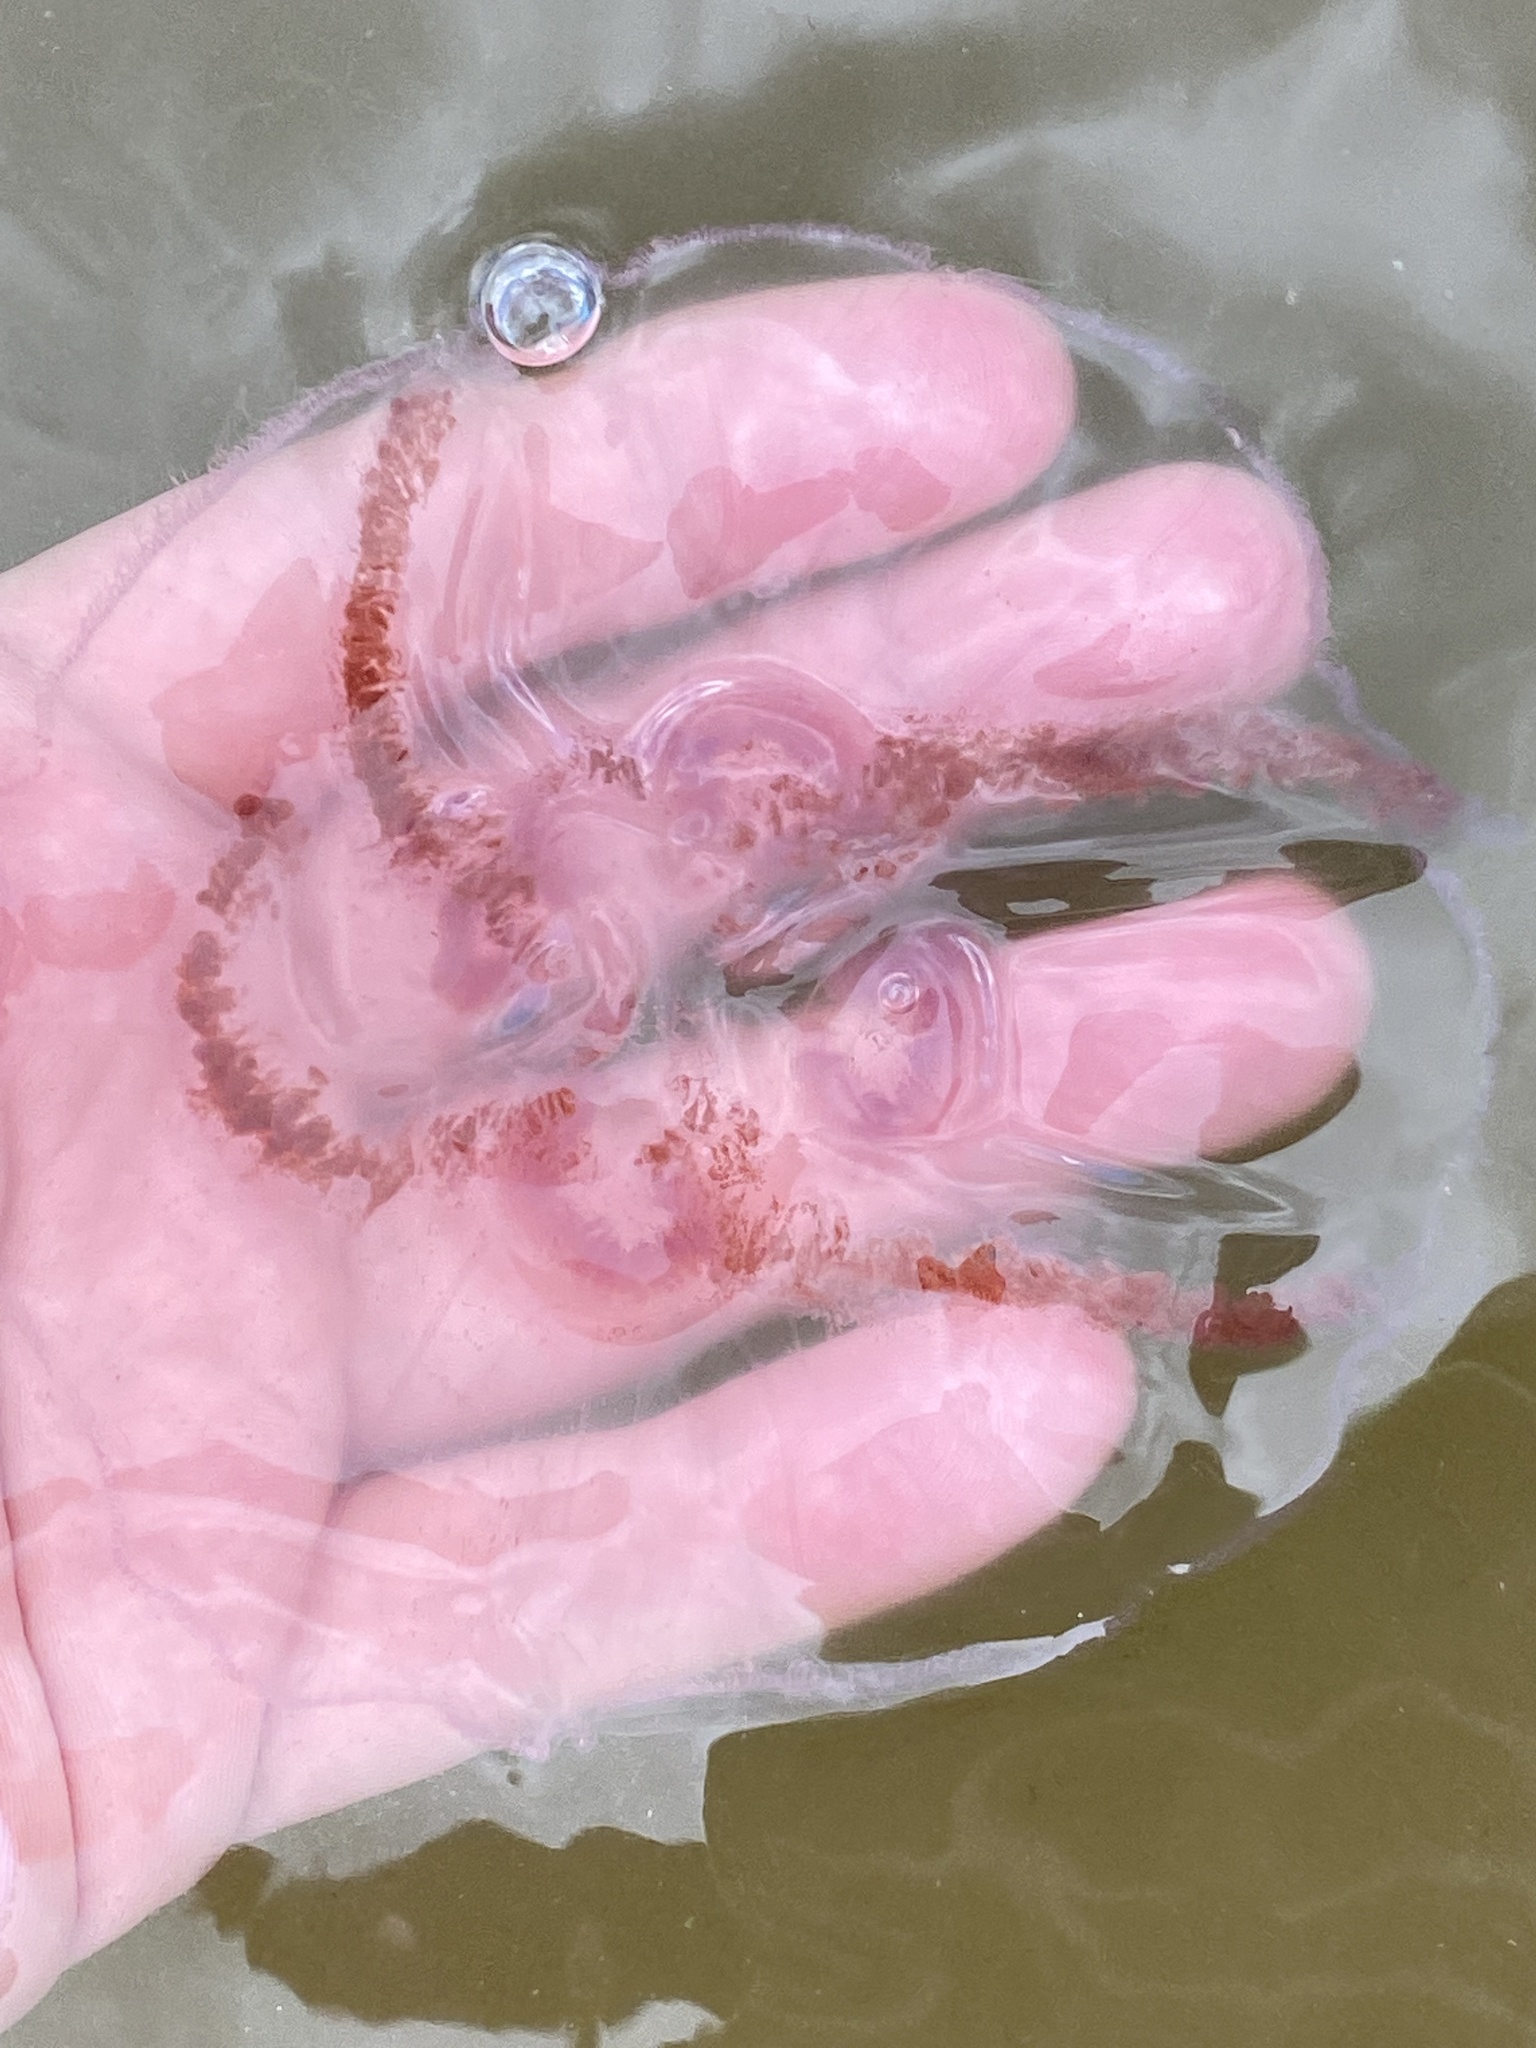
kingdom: Animalia
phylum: Cnidaria
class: Scyphozoa
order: Semaeostomeae
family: Ulmaridae
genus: Aurelia
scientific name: Aurelia aurita
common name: Moon jellyfish
